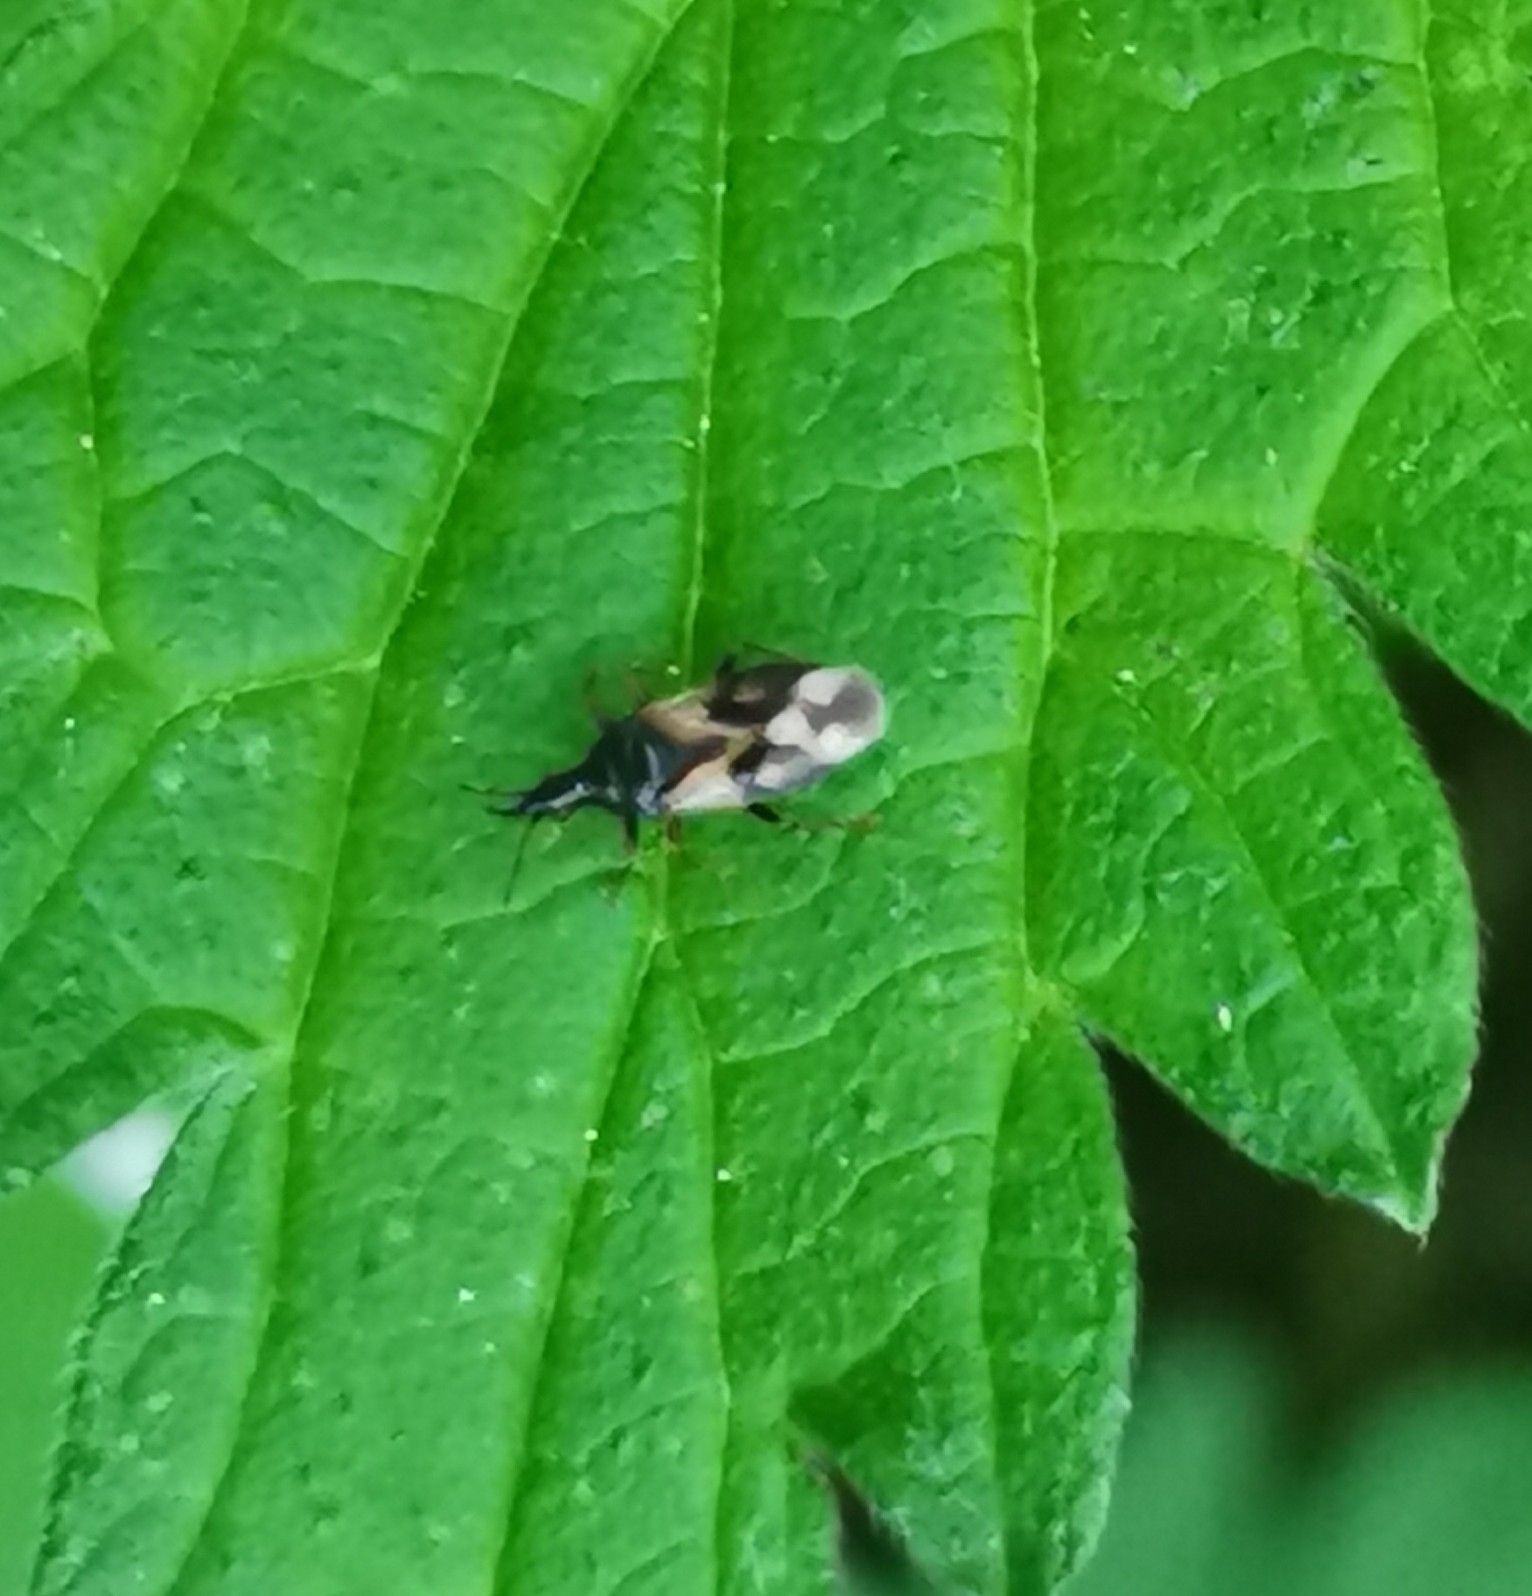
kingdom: Animalia
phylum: Arthropoda
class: Insecta
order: Hemiptera
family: Anthocoridae
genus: Anthocoris
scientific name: Anthocoris nemorum
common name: Minute pirate bug
